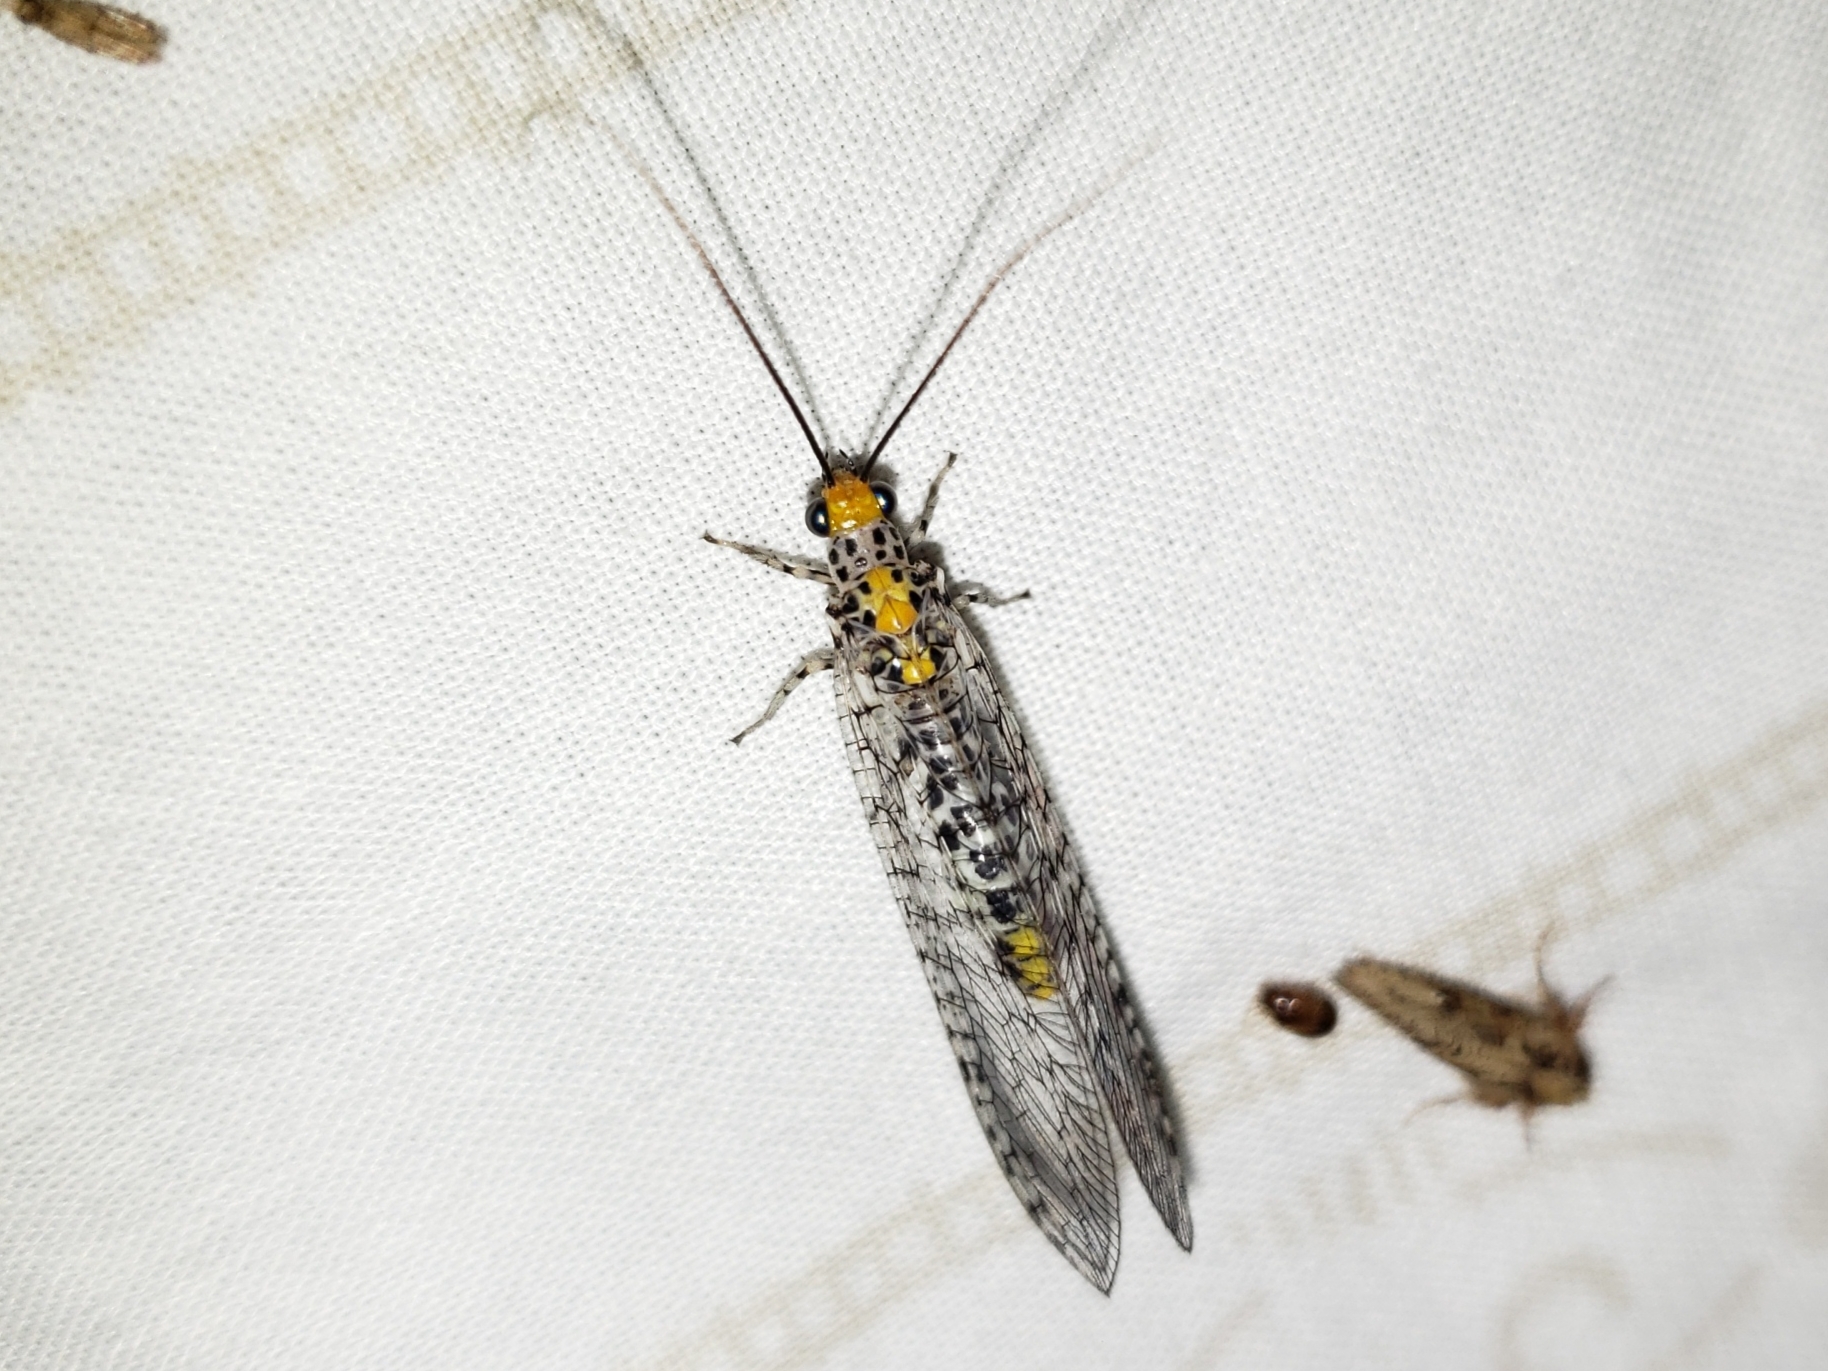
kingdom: Animalia
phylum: Arthropoda
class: Insecta
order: Neuroptera
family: Chrysopidae
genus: Abachrysa
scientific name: Abachrysa eureka
